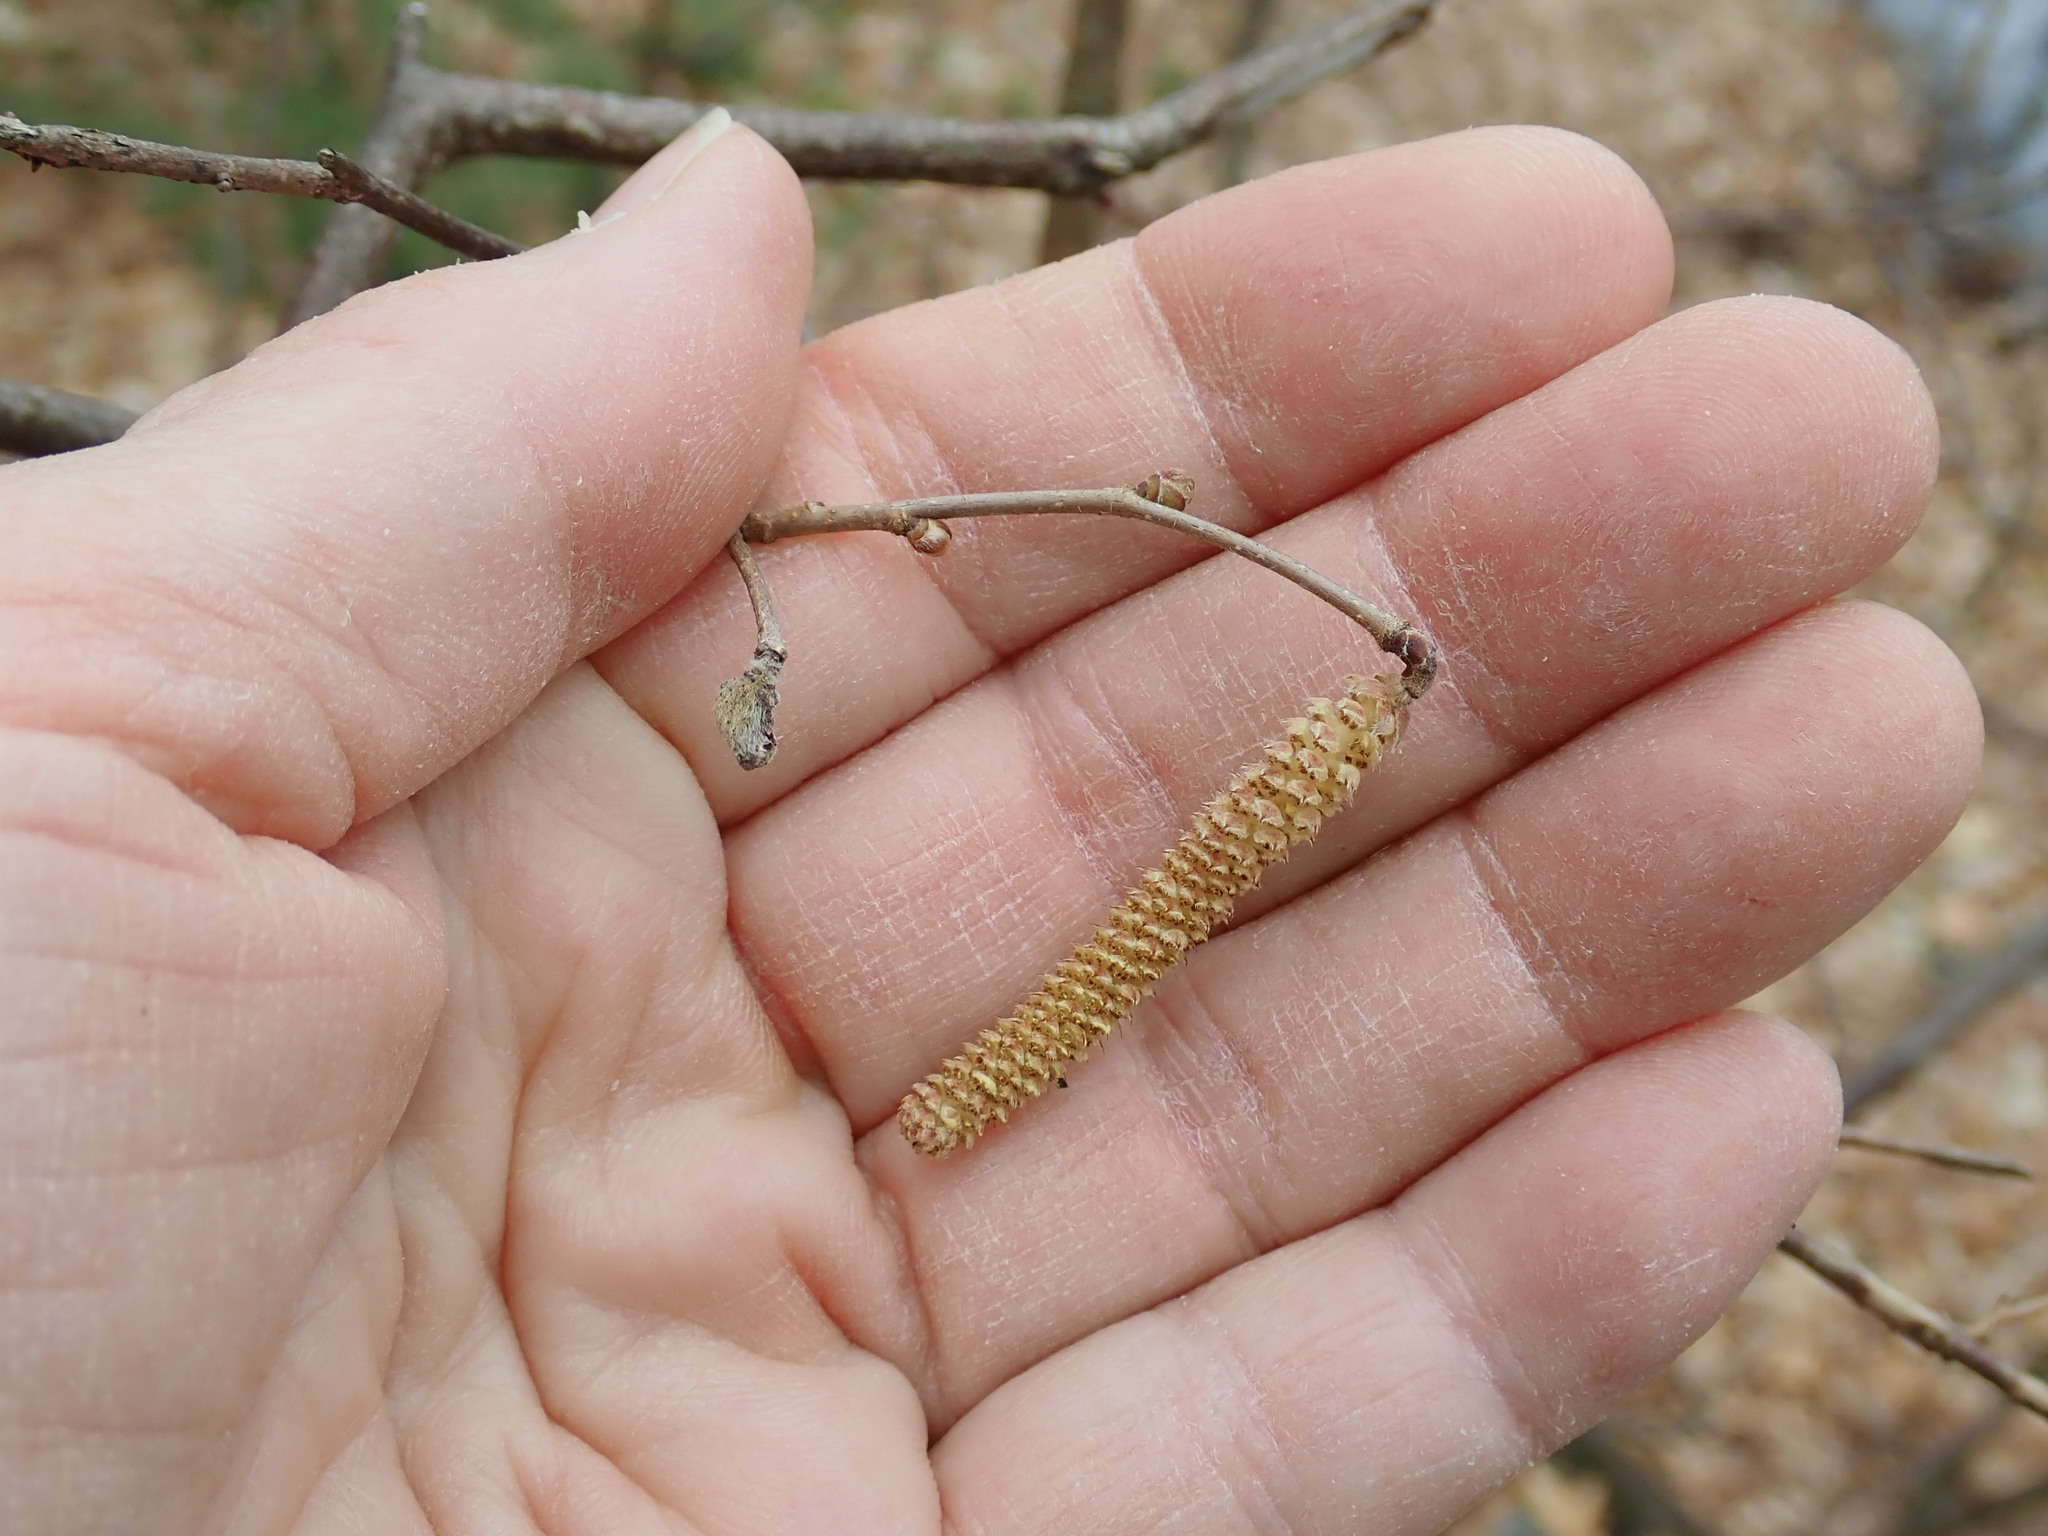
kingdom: Plantae
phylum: Tracheophyta
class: Magnoliopsida
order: Fagales
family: Betulaceae
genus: Corylus
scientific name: Corylus cornuta
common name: Beaked hazel
